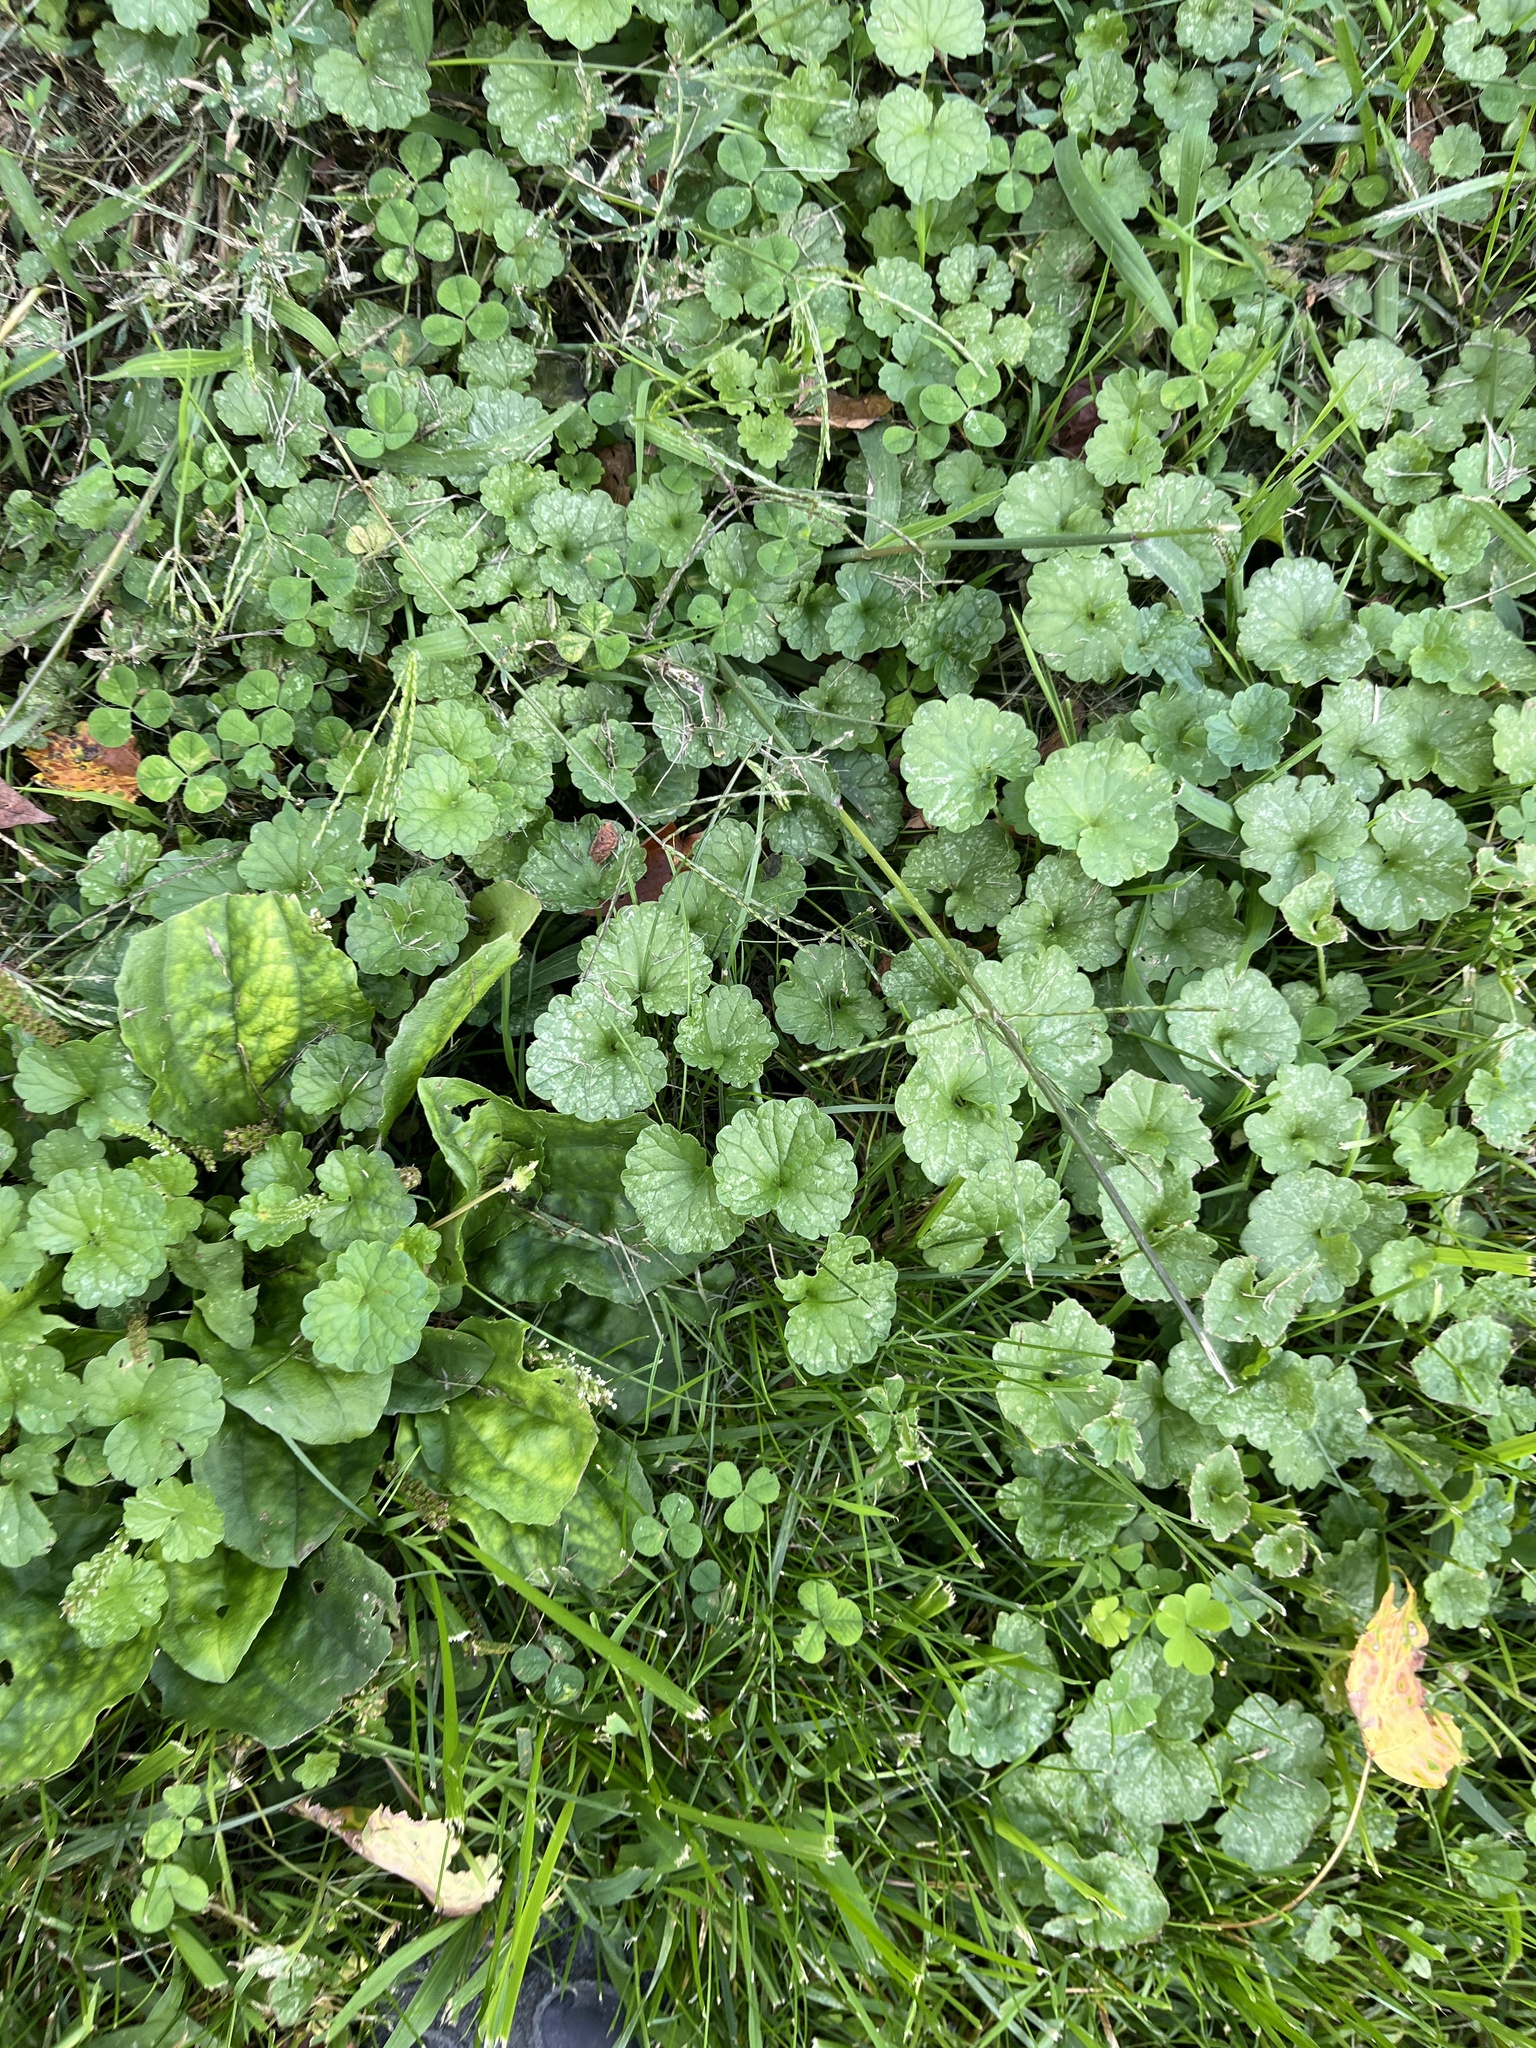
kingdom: Plantae
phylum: Tracheophyta
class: Magnoliopsida
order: Lamiales
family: Lamiaceae
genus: Glechoma
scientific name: Glechoma hederacea
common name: Ground ivy
